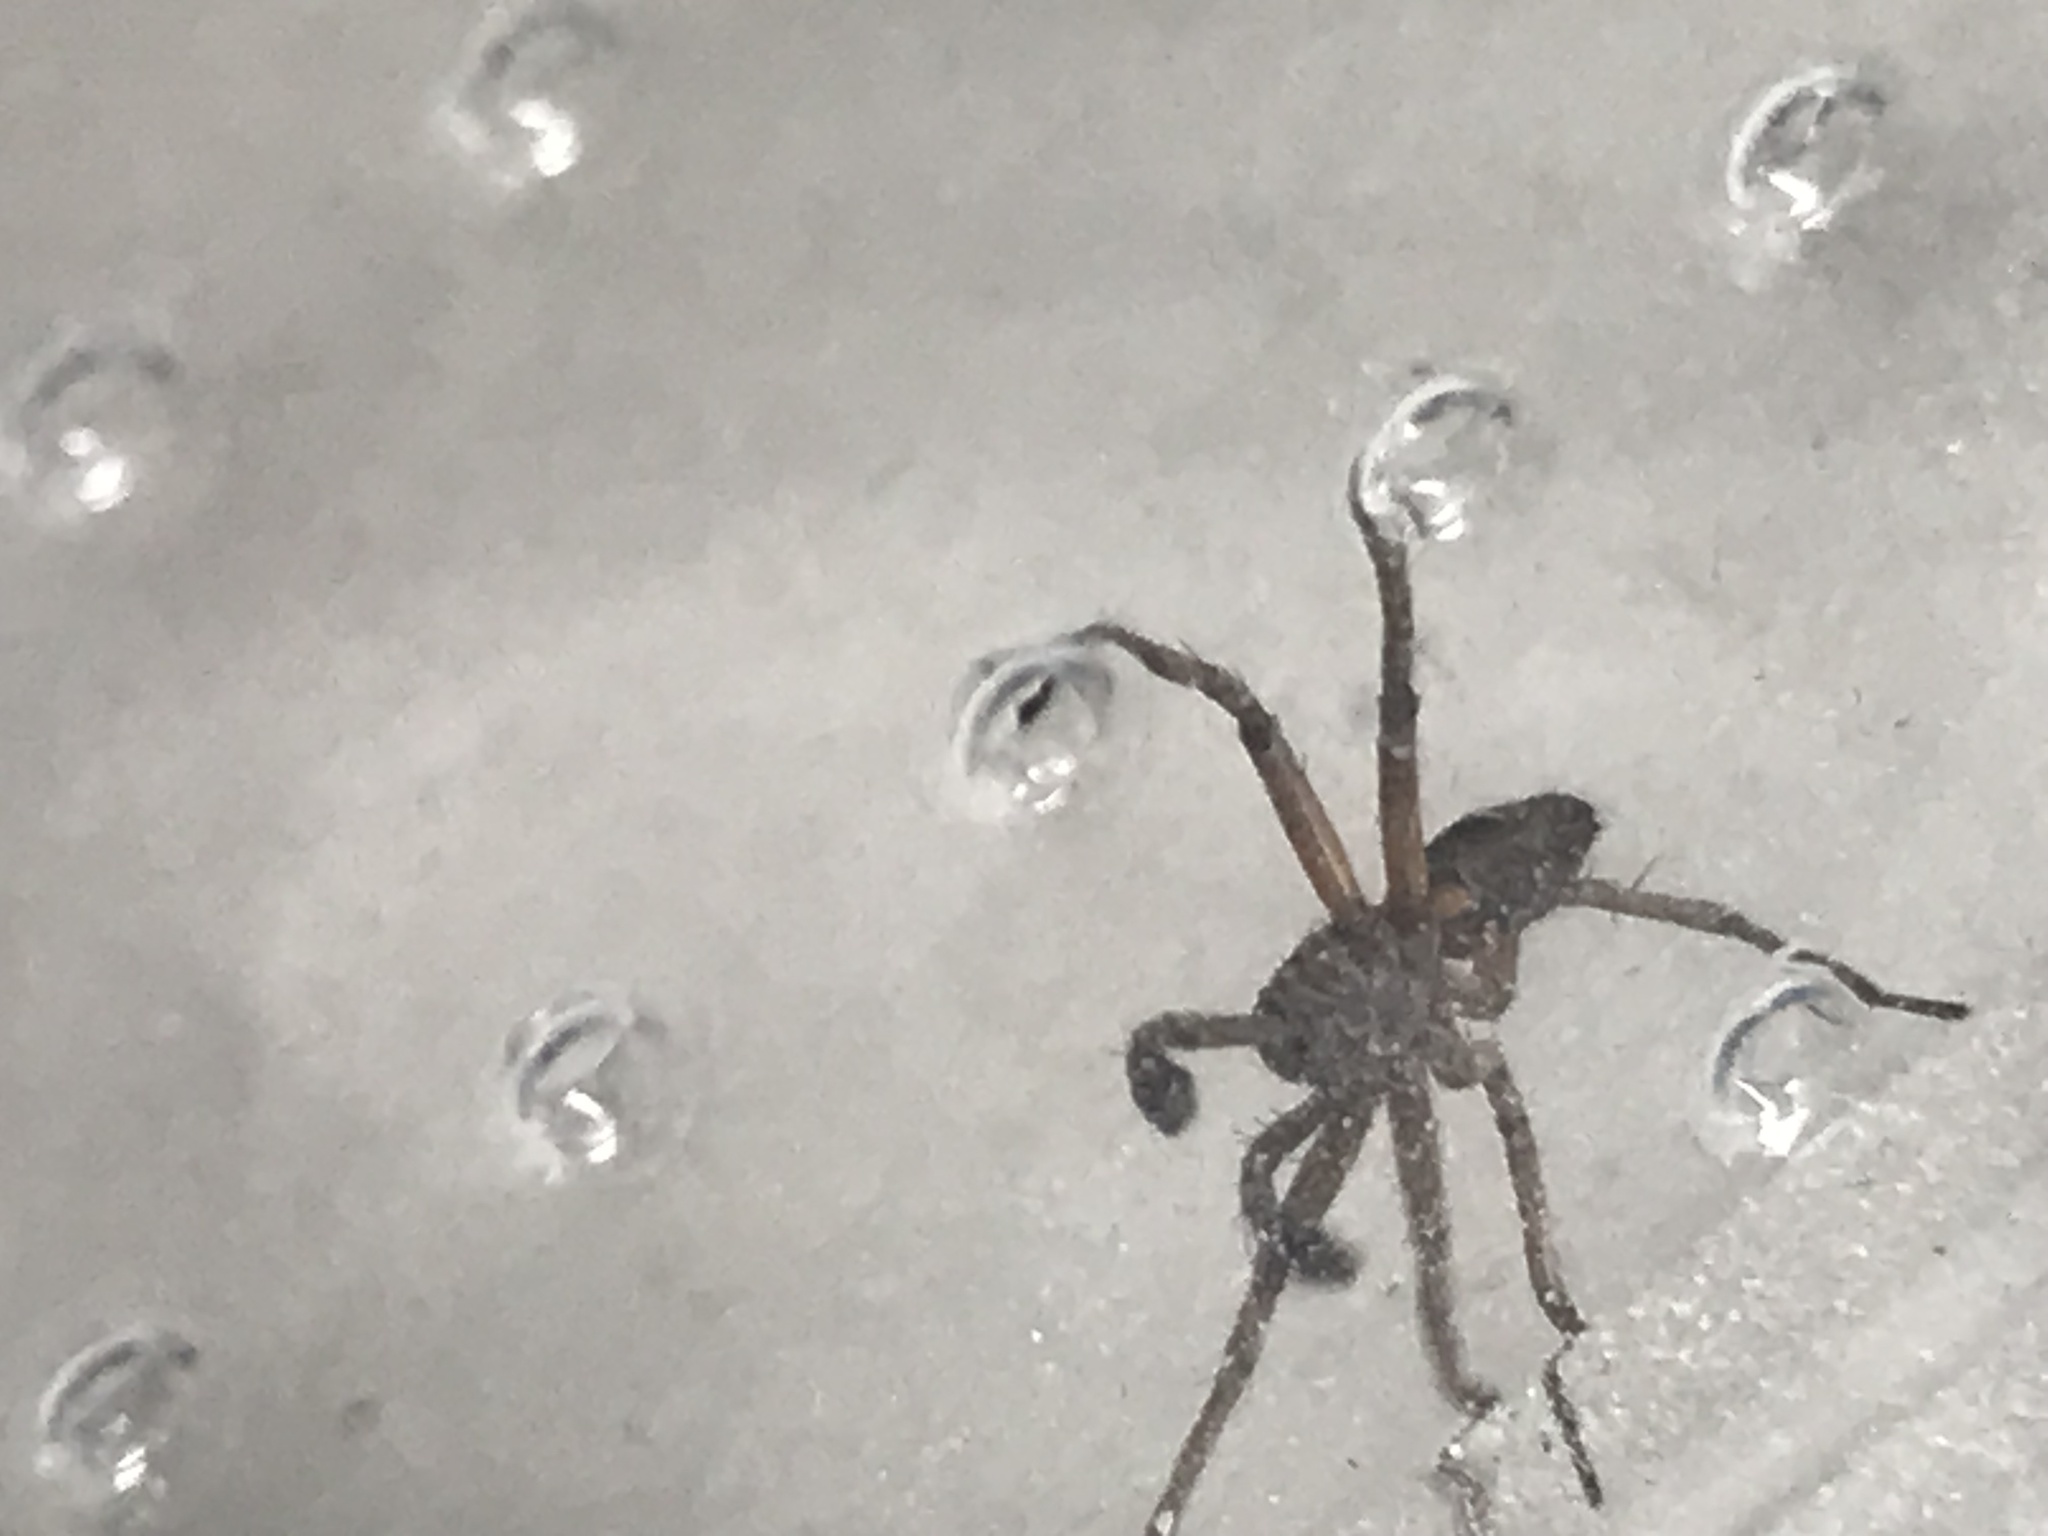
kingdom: Animalia
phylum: Arthropoda
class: Arachnida
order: Araneae
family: Philodromidae
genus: Philodromus
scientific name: Philodromus
